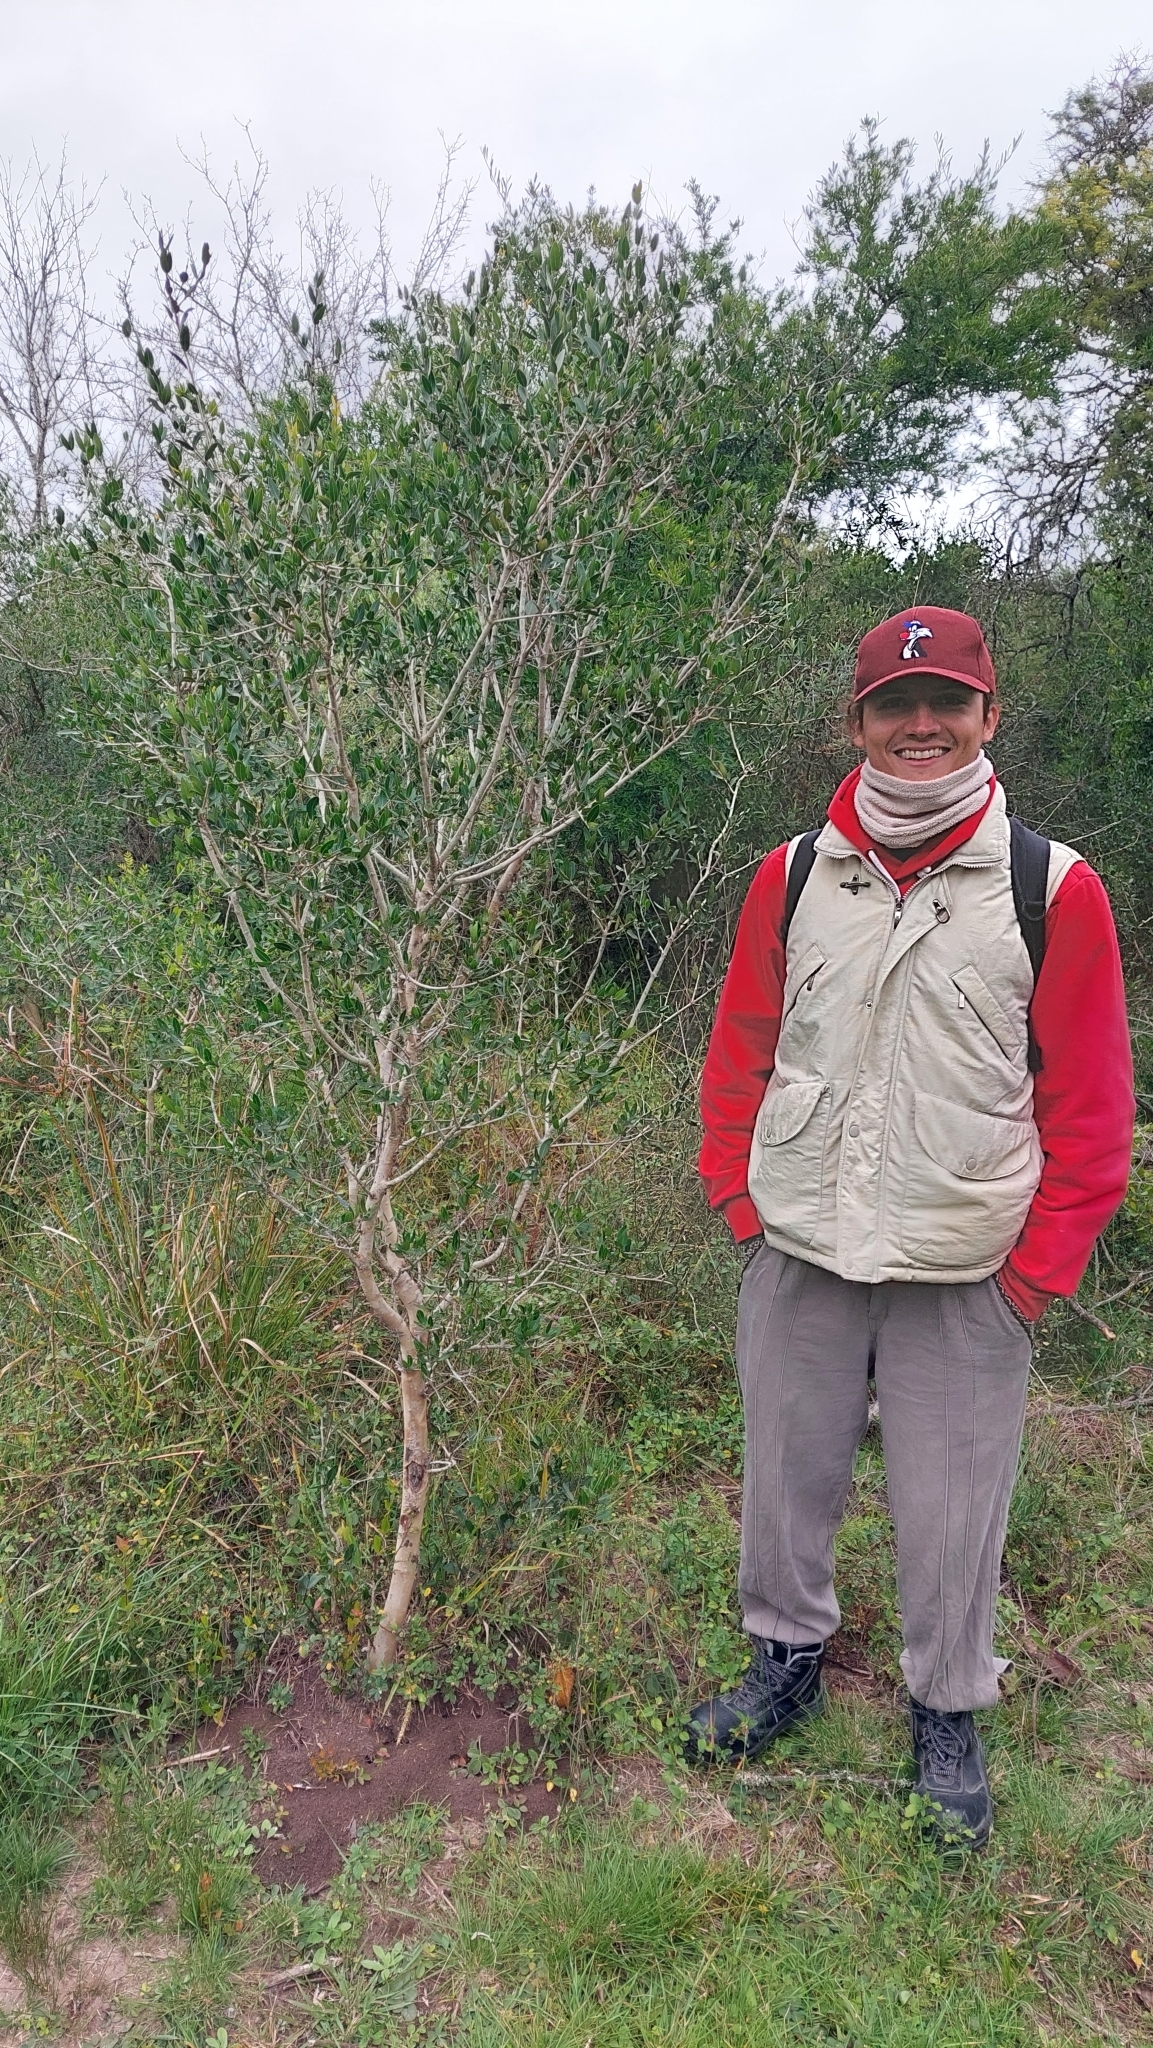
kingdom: Plantae
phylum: Tracheophyta
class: Magnoliopsida
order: Myrtales
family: Myrtaceae
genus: Myrcianthes
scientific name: Myrcianthes cisplatensis
